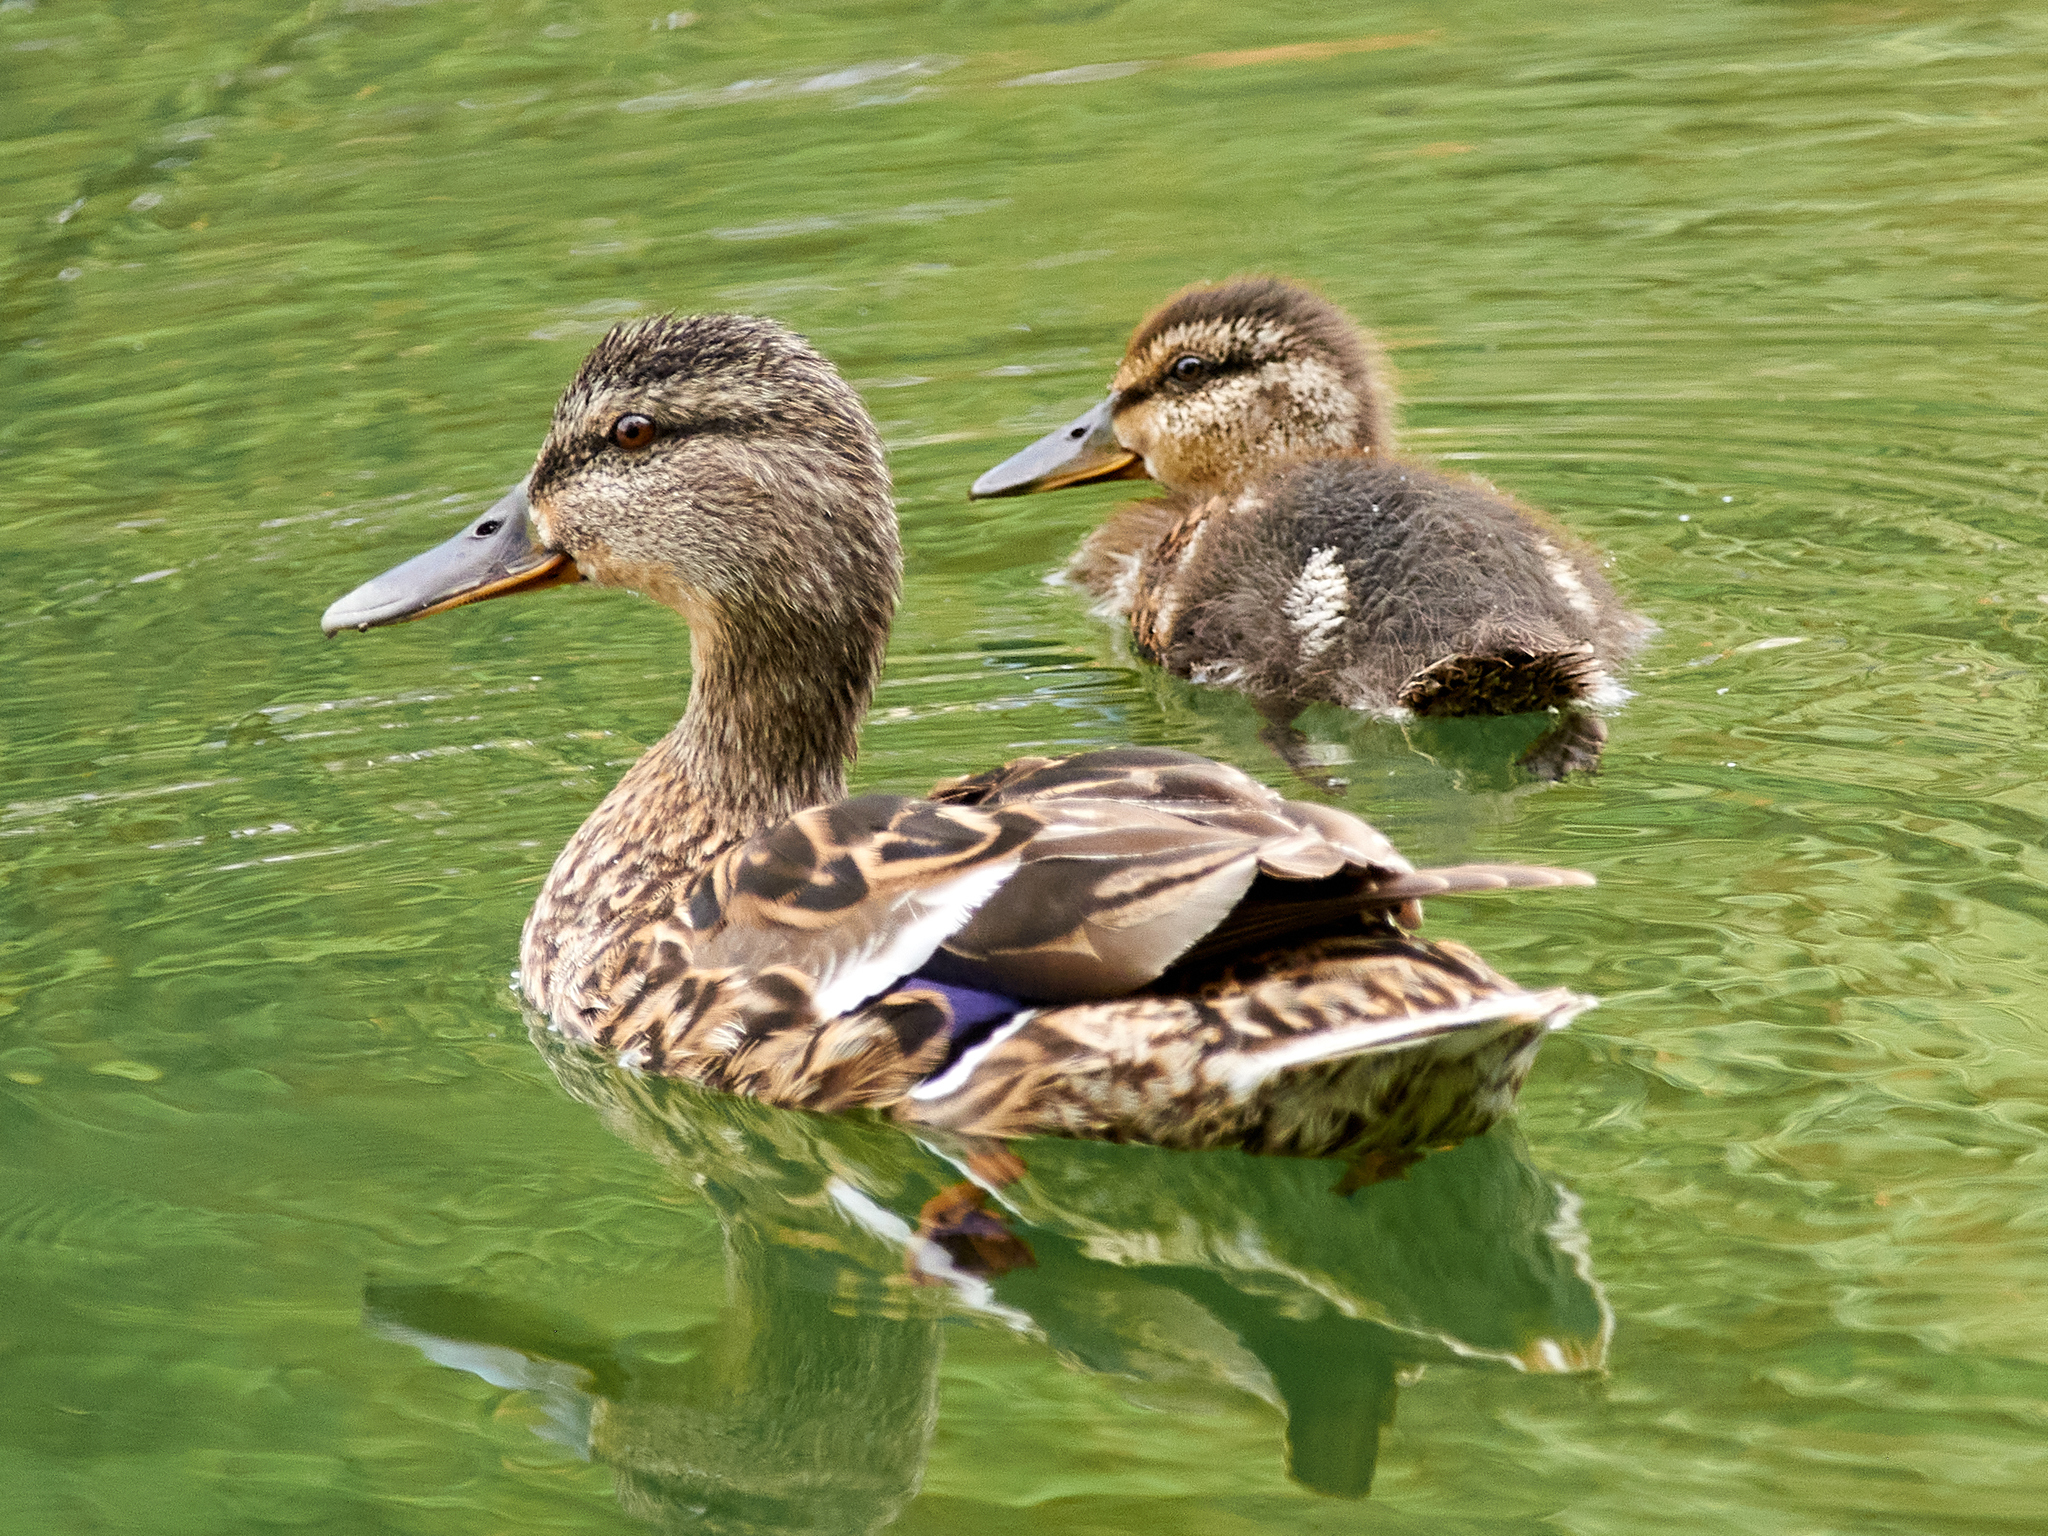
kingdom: Animalia
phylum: Chordata
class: Aves
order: Anseriformes
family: Anatidae
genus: Anas
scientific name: Anas platyrhynchos
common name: Mallard
